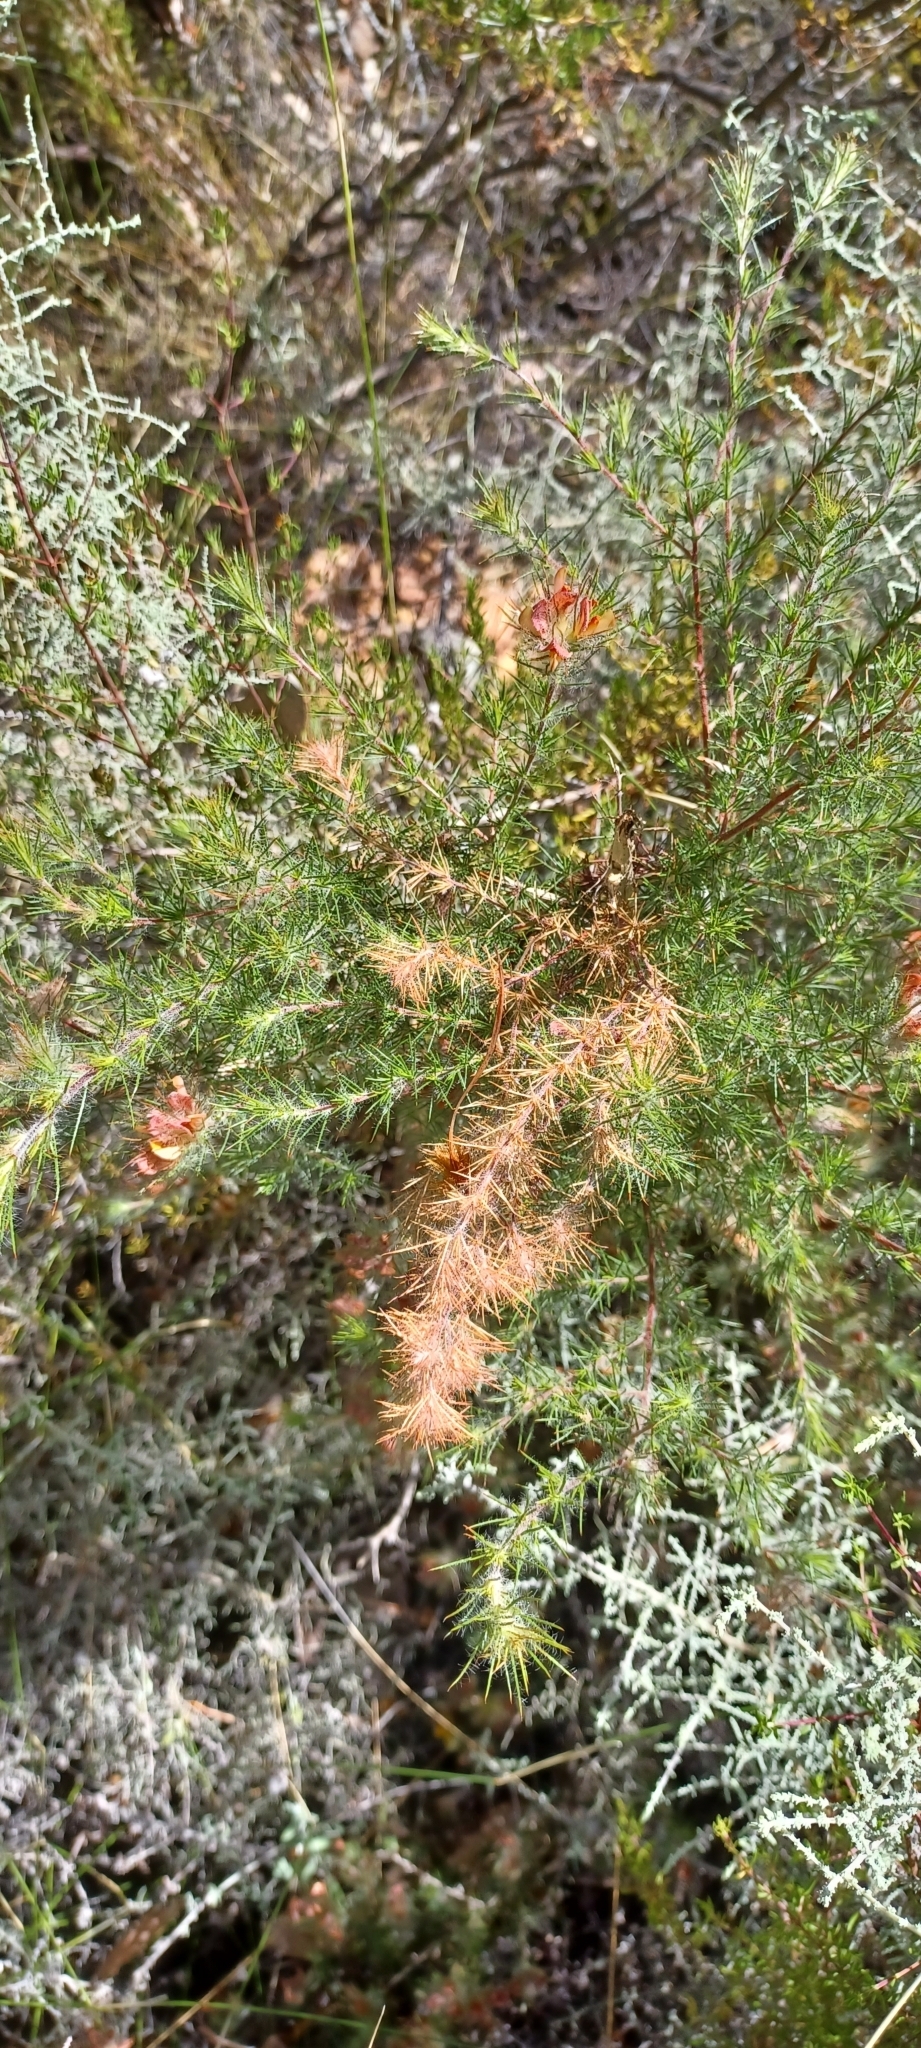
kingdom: Plantae
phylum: Tracheophyta
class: Magnoliopsida
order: Fabales
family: Fabaceae
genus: Aspalathus
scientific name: Aspalathus rubiginosa
